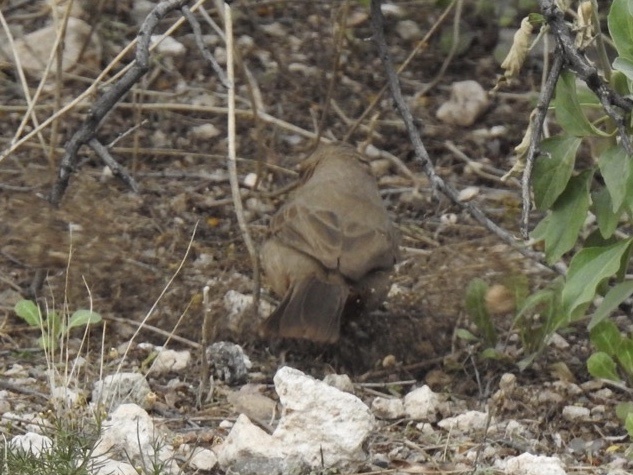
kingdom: Animalia
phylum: Chordata
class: Aves
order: Passeriformes
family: Passerellidae
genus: Melozone
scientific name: Melozone aberti
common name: Abert's towhee
